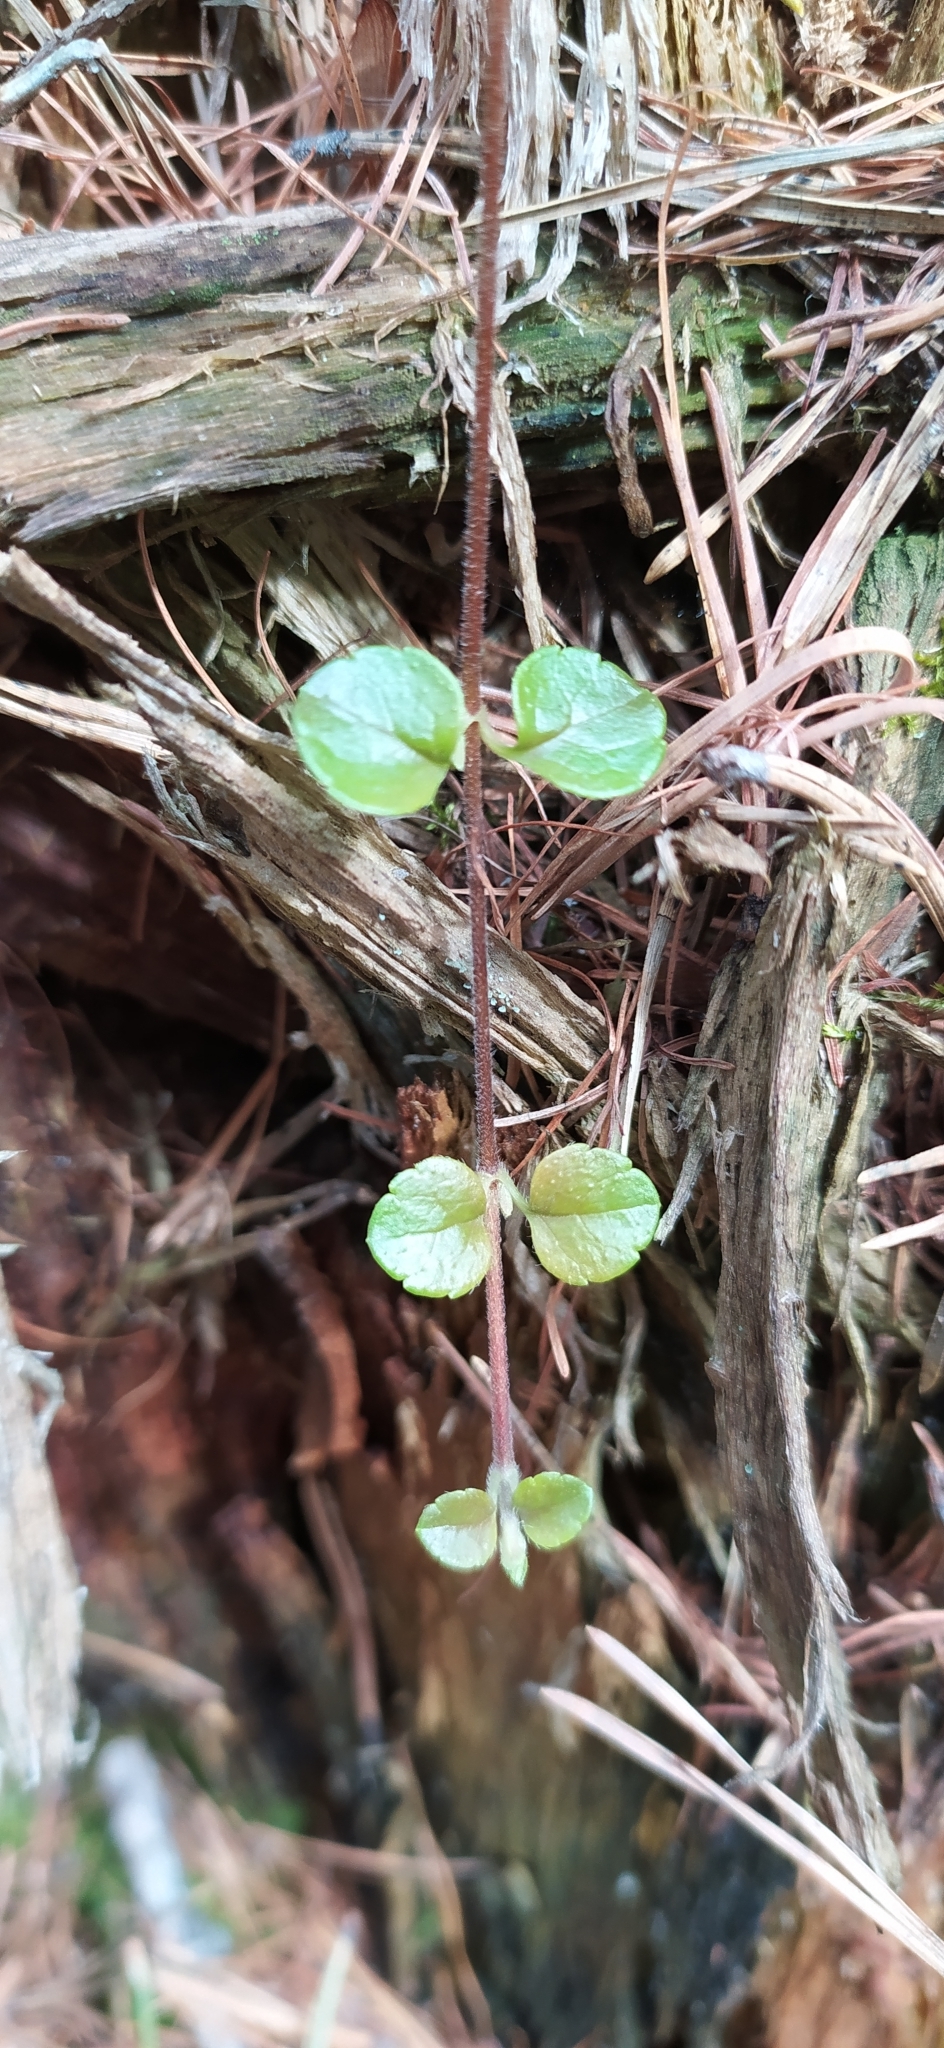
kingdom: Plantae
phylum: Tracheophyta
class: Magnoliopsida
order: Dipsacales
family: Caprifoliaceae
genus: Linnaea
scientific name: Linnaea borealis
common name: Twinflower
